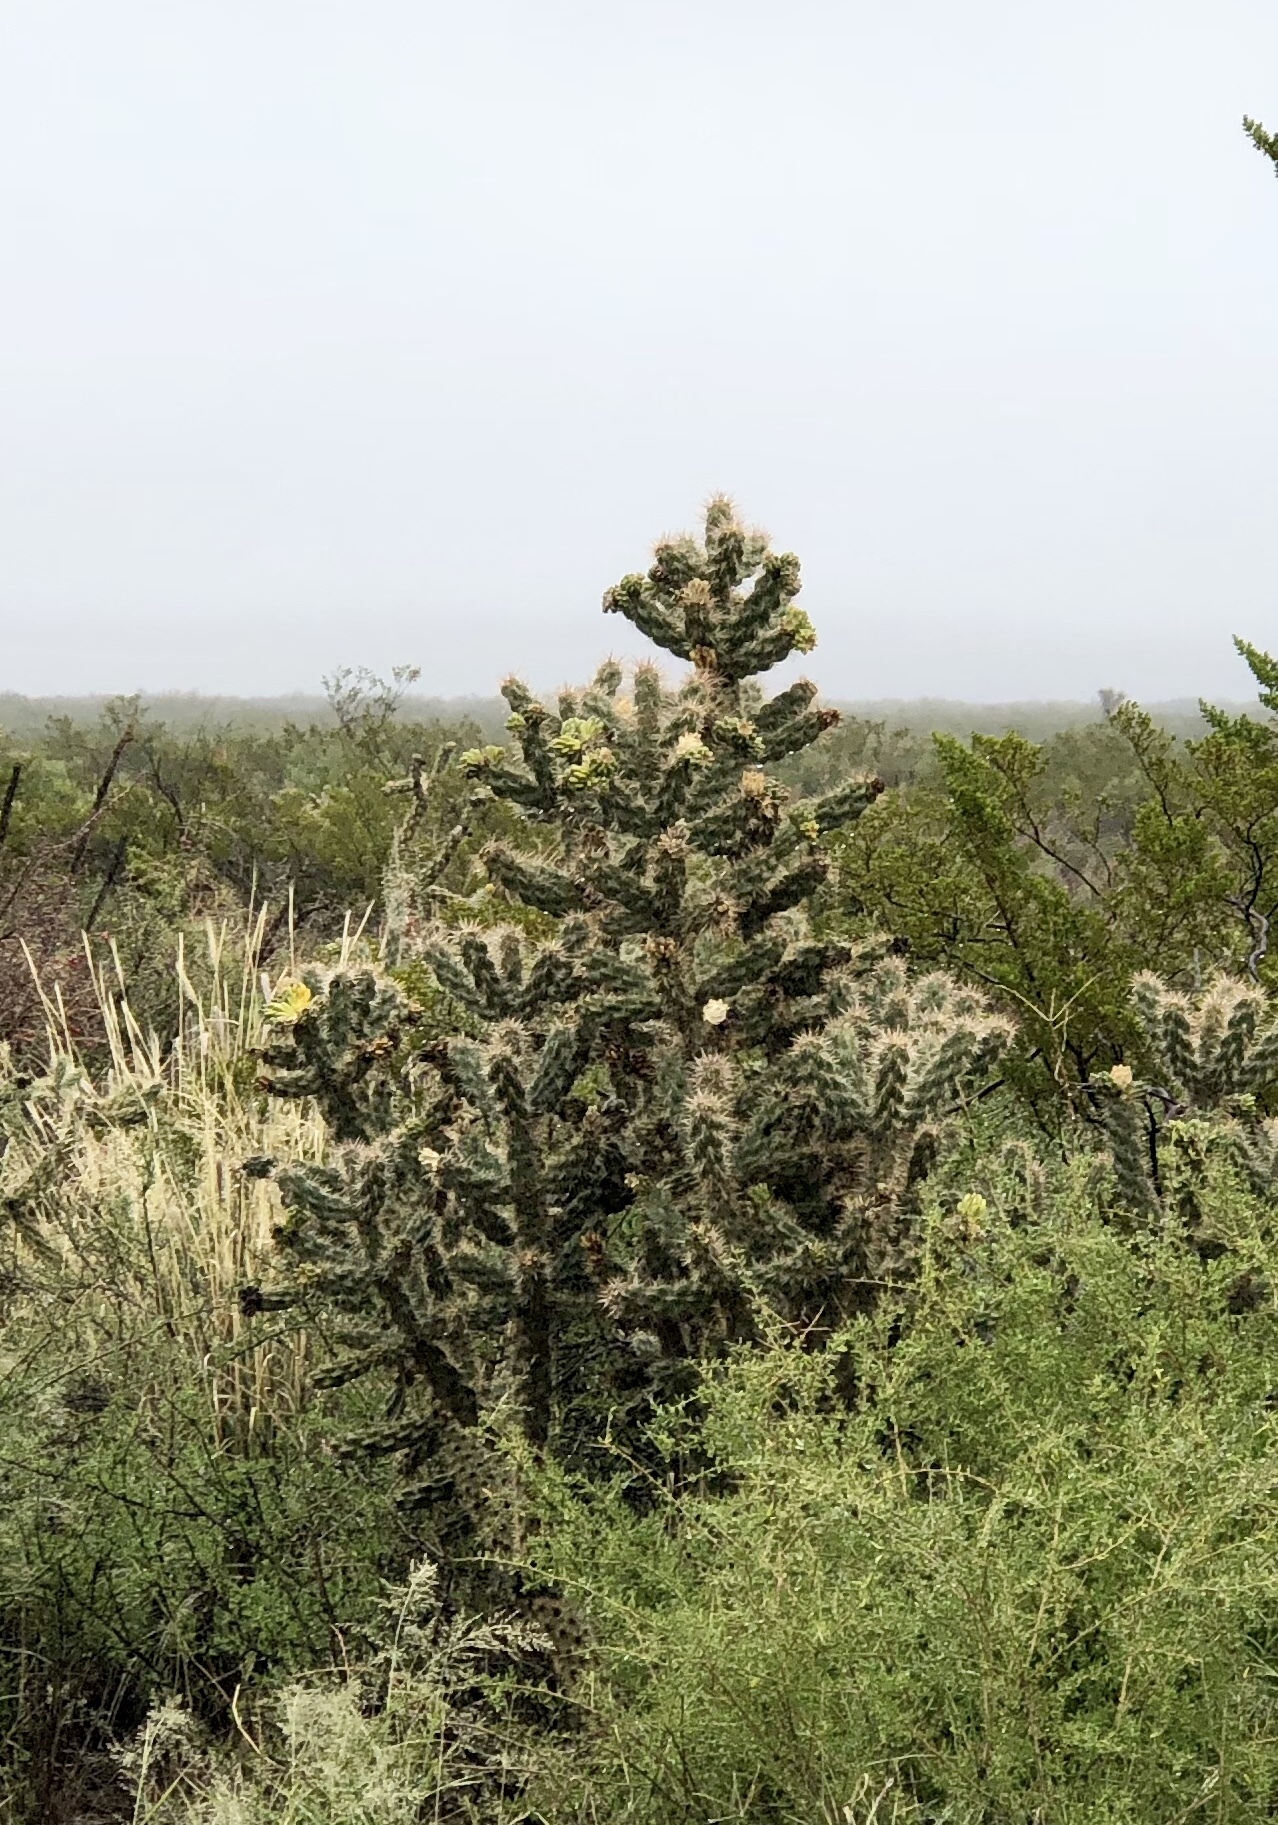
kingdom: Plantae
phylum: Tracheophyta
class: Magnoliopsida
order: Caryophyllales
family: Cactaceae
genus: Cylindropuntia
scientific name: Cylindropuntia imbricata
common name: Candelabrum cactus
